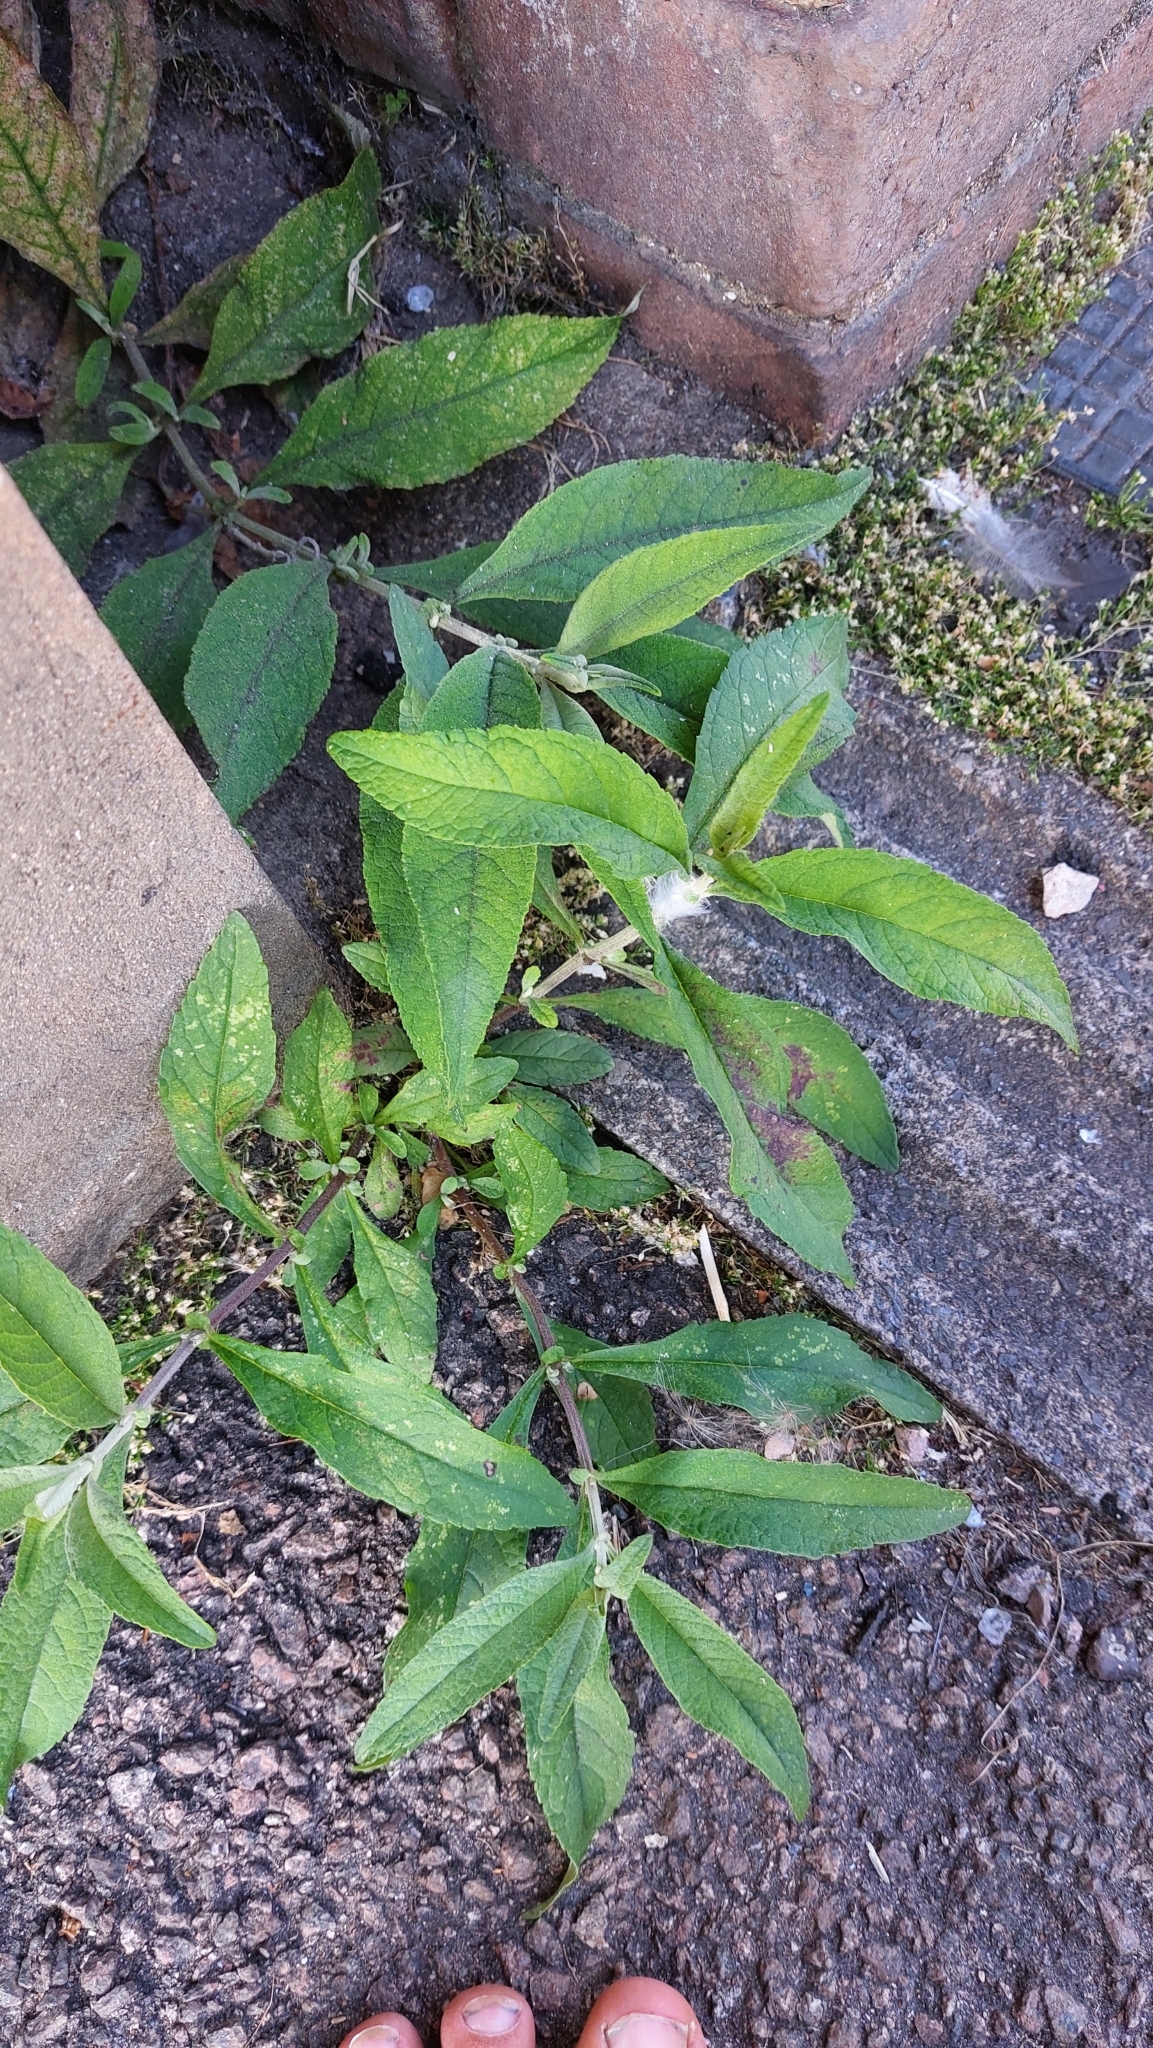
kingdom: Plantae
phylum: Tracheophyta
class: Magnoliopsida
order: Lamiales
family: Scrophulariaceae
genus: Buddleja
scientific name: Buddleja davidii
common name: Butterfly-bush
